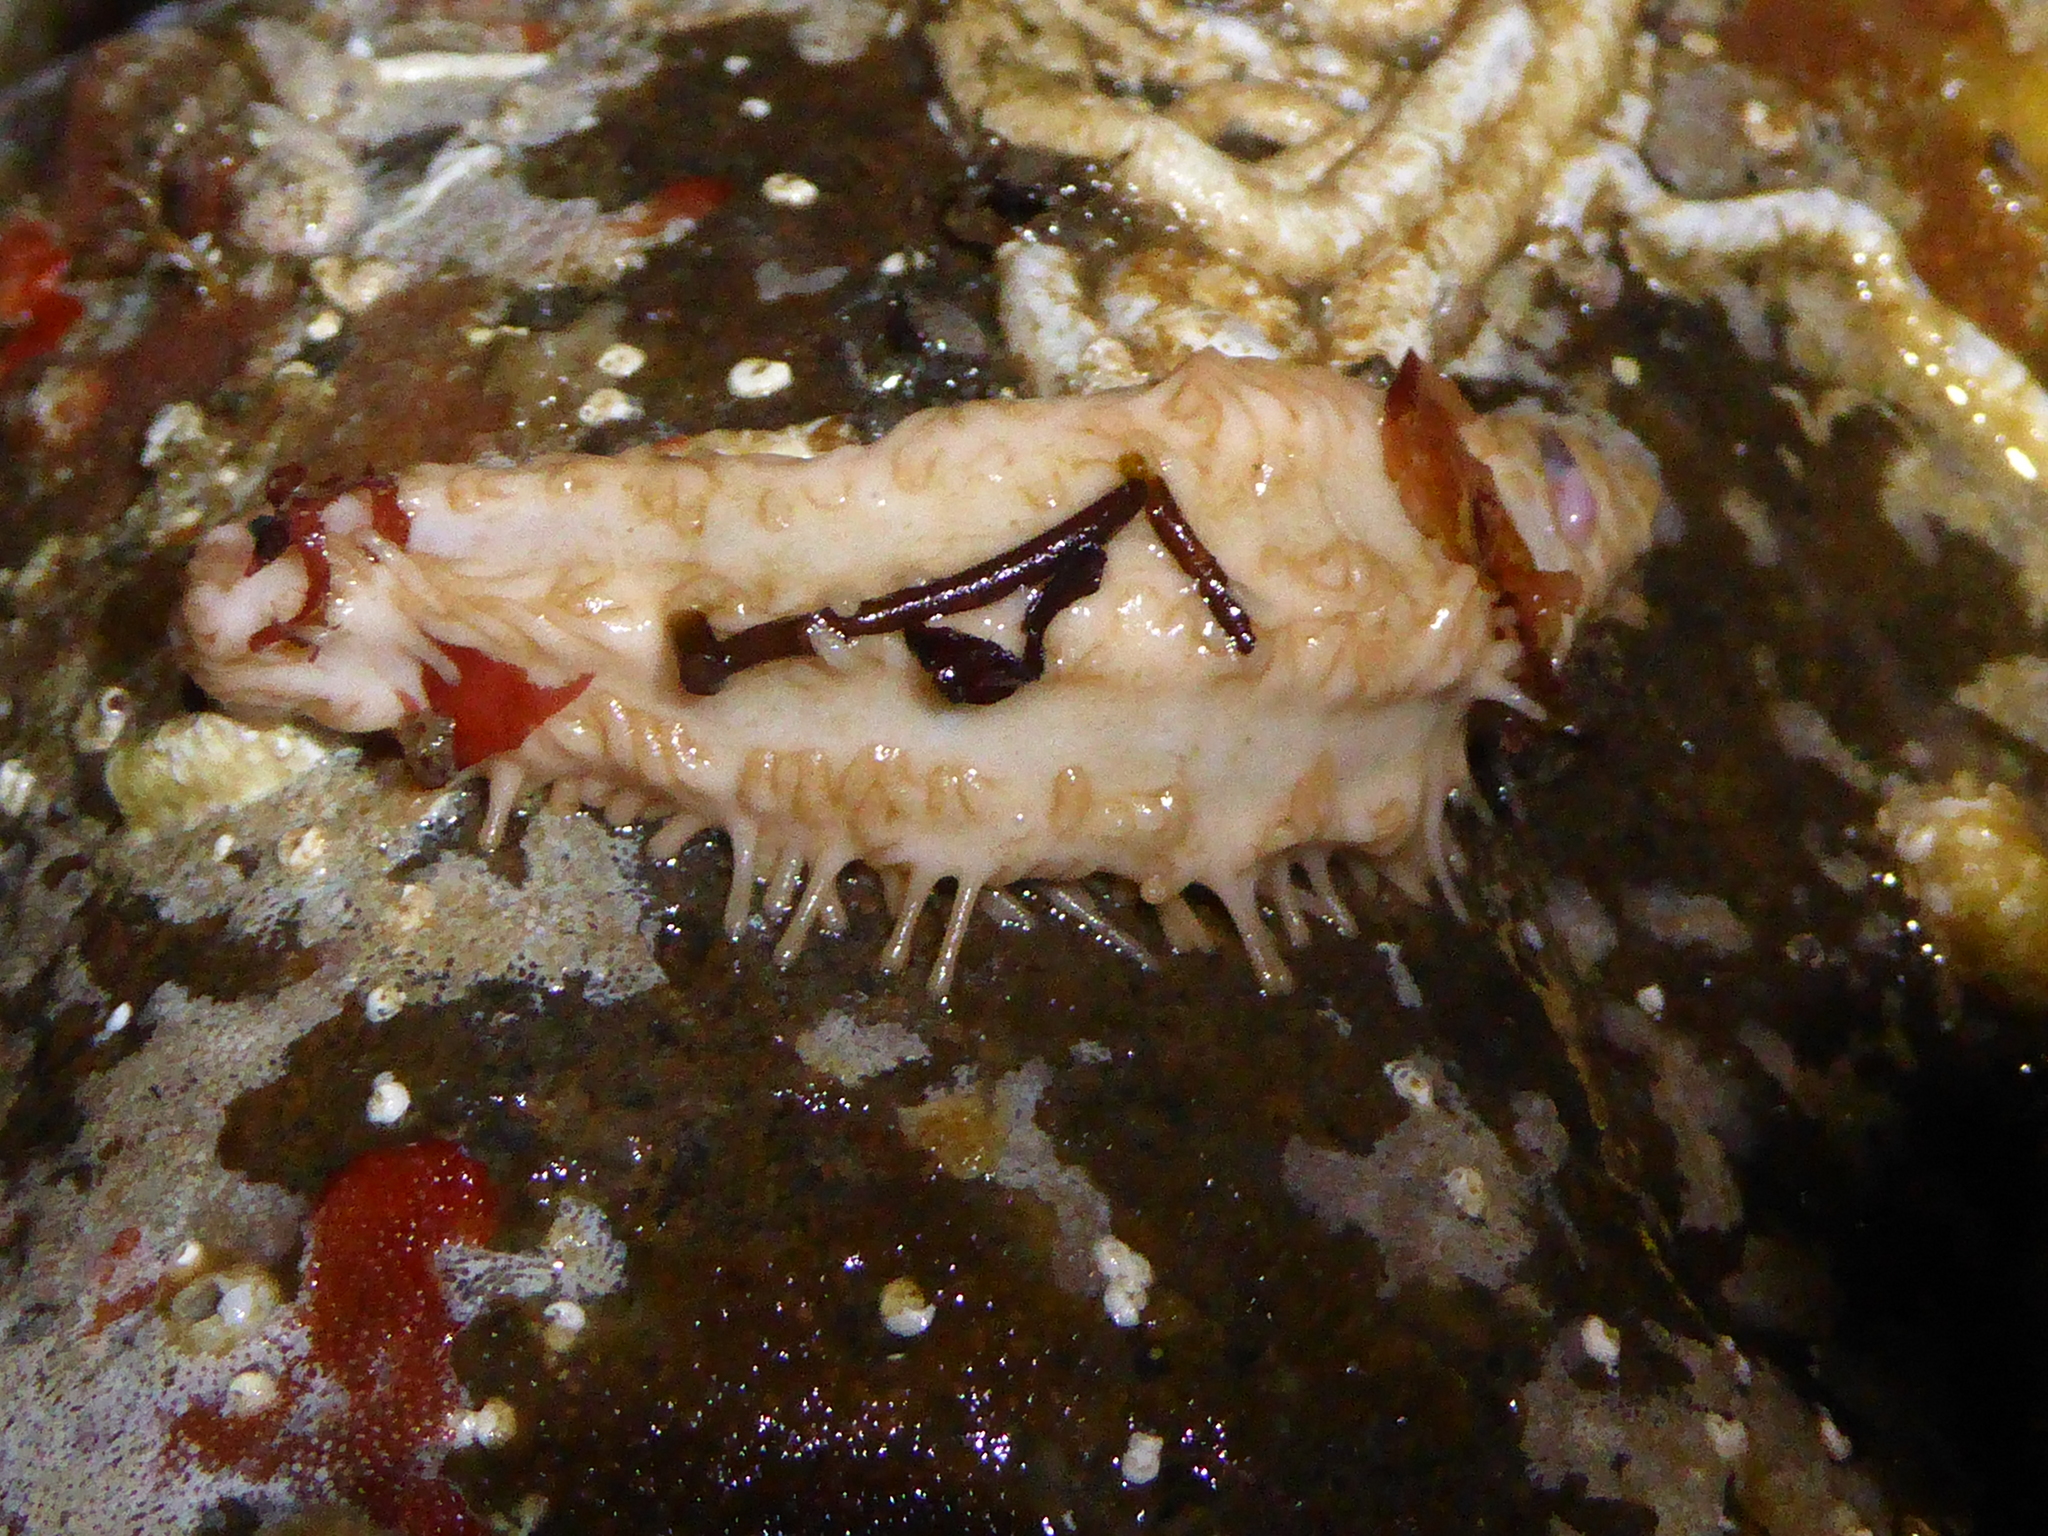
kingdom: Animalia
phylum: Echinodermata
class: Holothuroidea
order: Dendrochirotida
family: Sclerodactylidae
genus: Eupentacta
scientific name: Eupentacta quinquesemita
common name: Pentamerous sea cucumber
